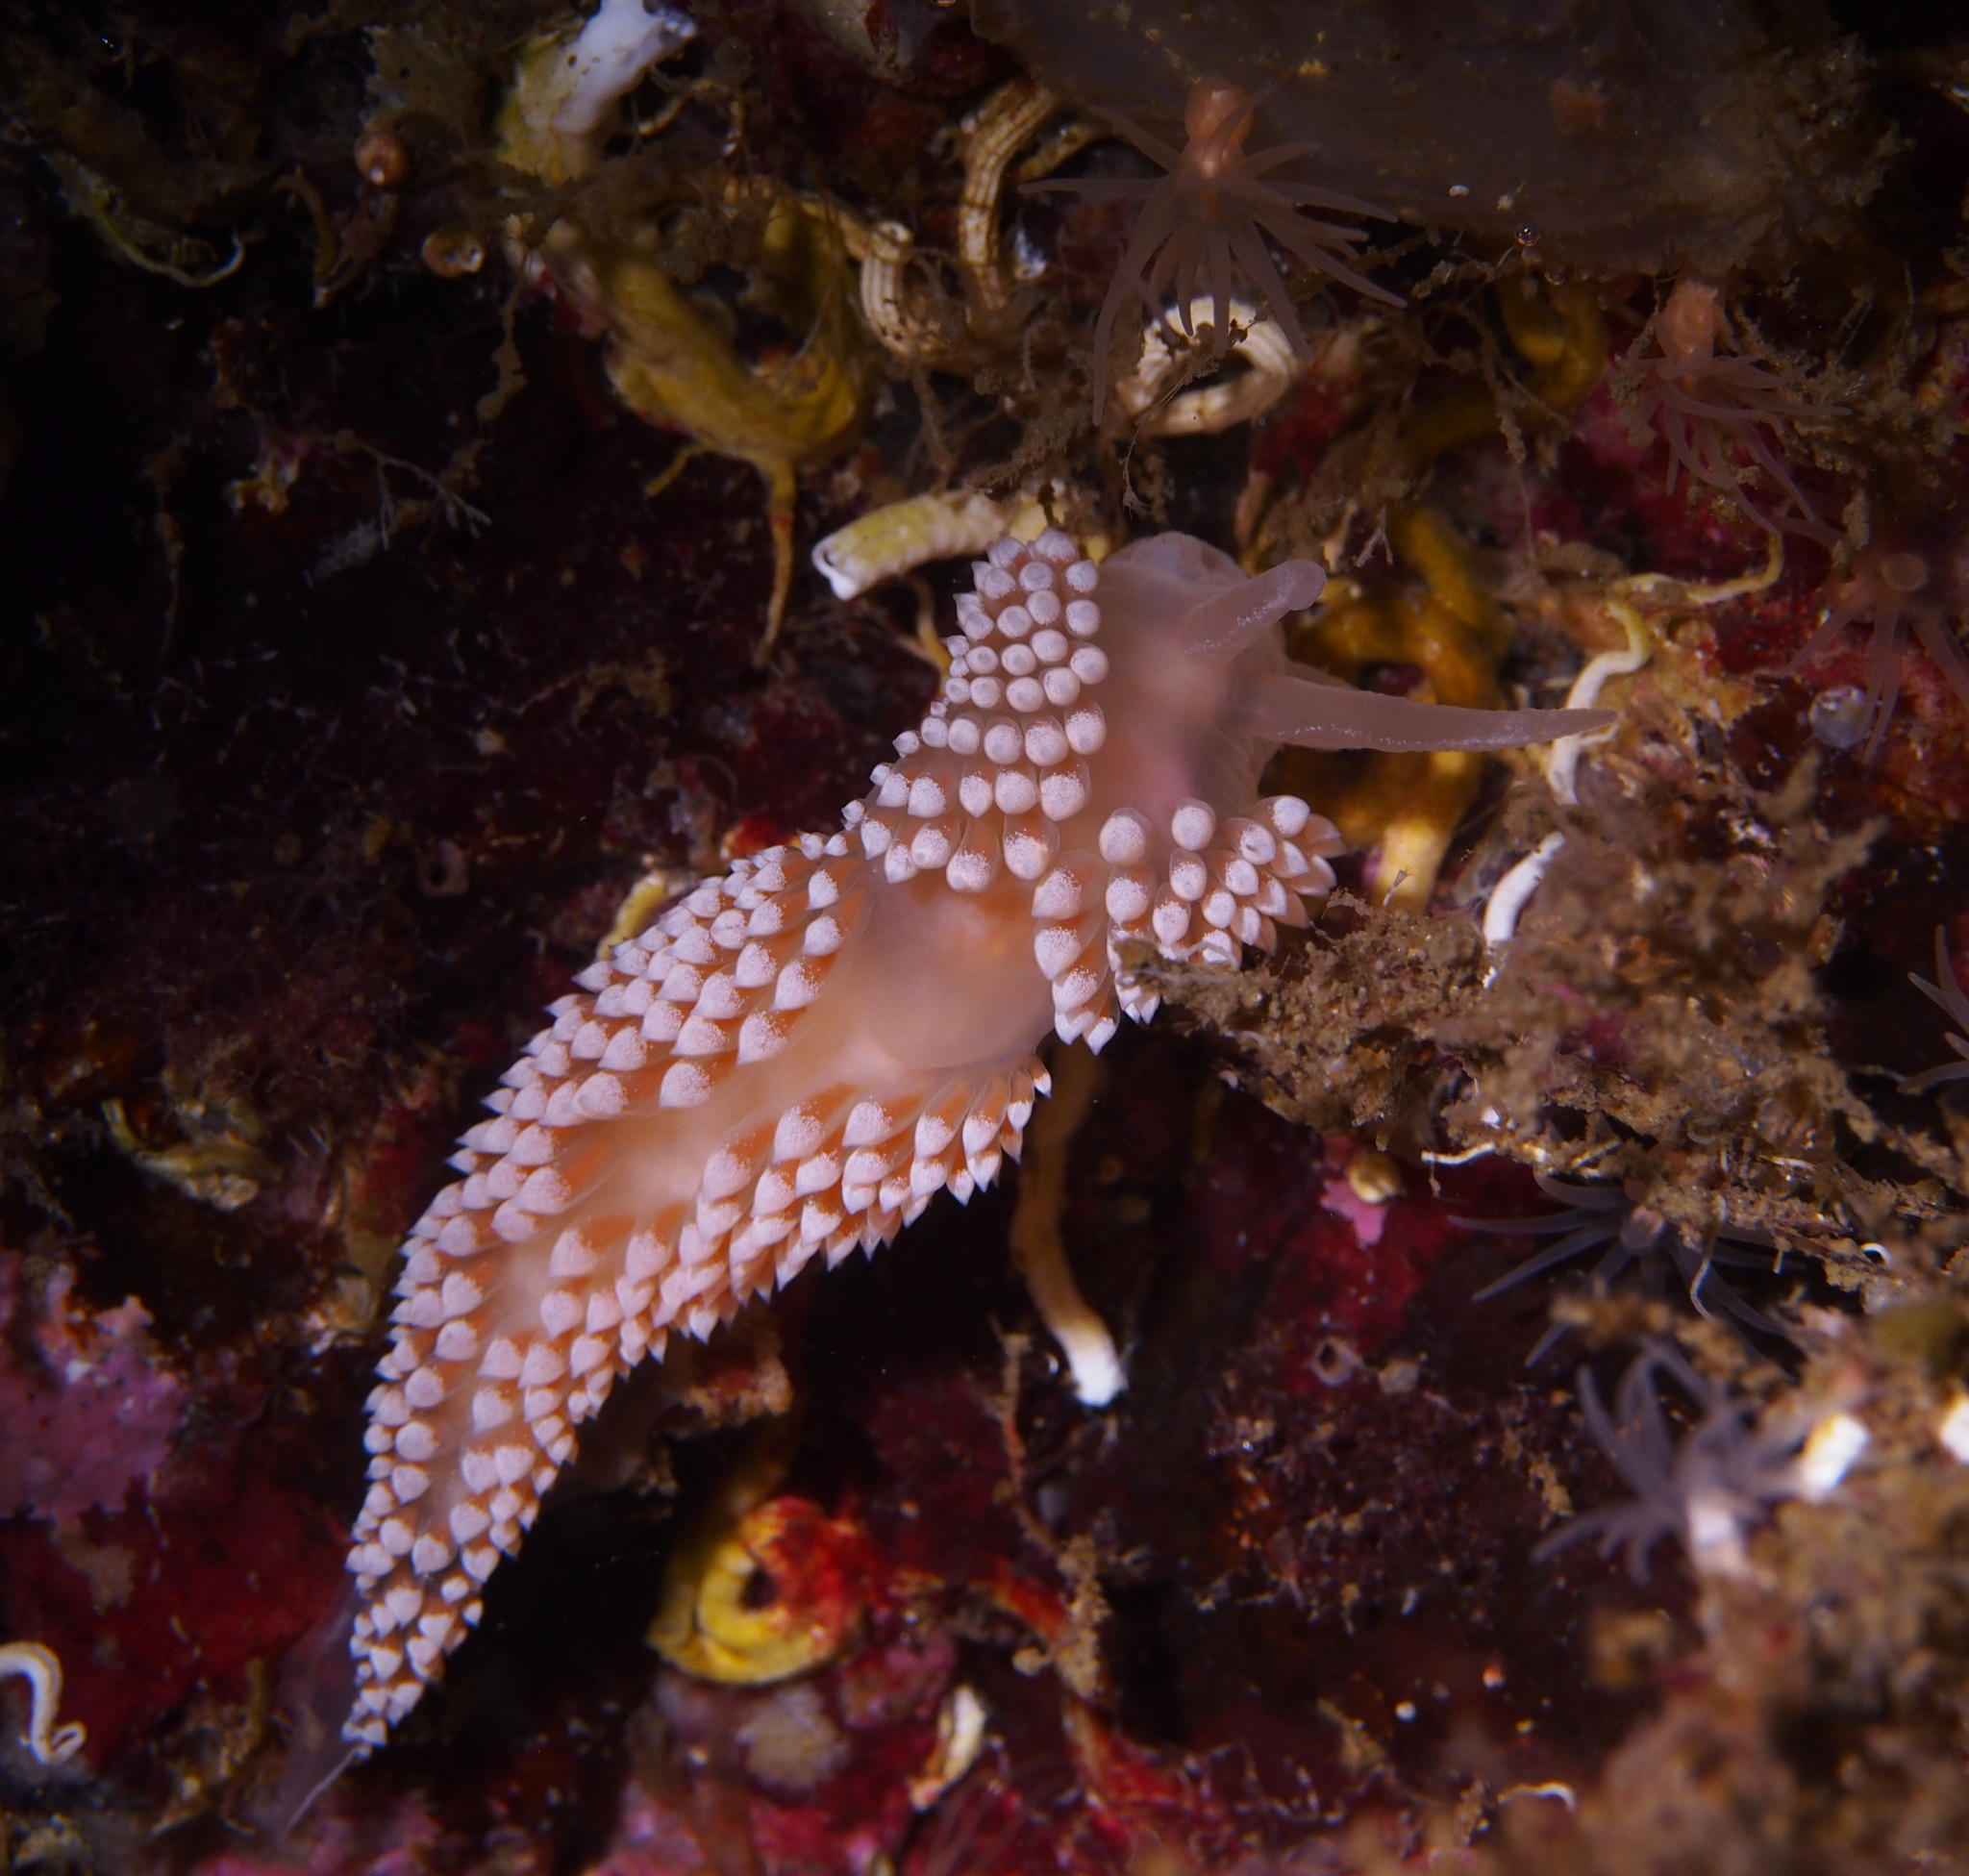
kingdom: Animalia
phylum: Mollusca
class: Gastropoda
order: Nudibranchia
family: Coryphellidae
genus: Coryphella
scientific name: Coryphella verrucosa
